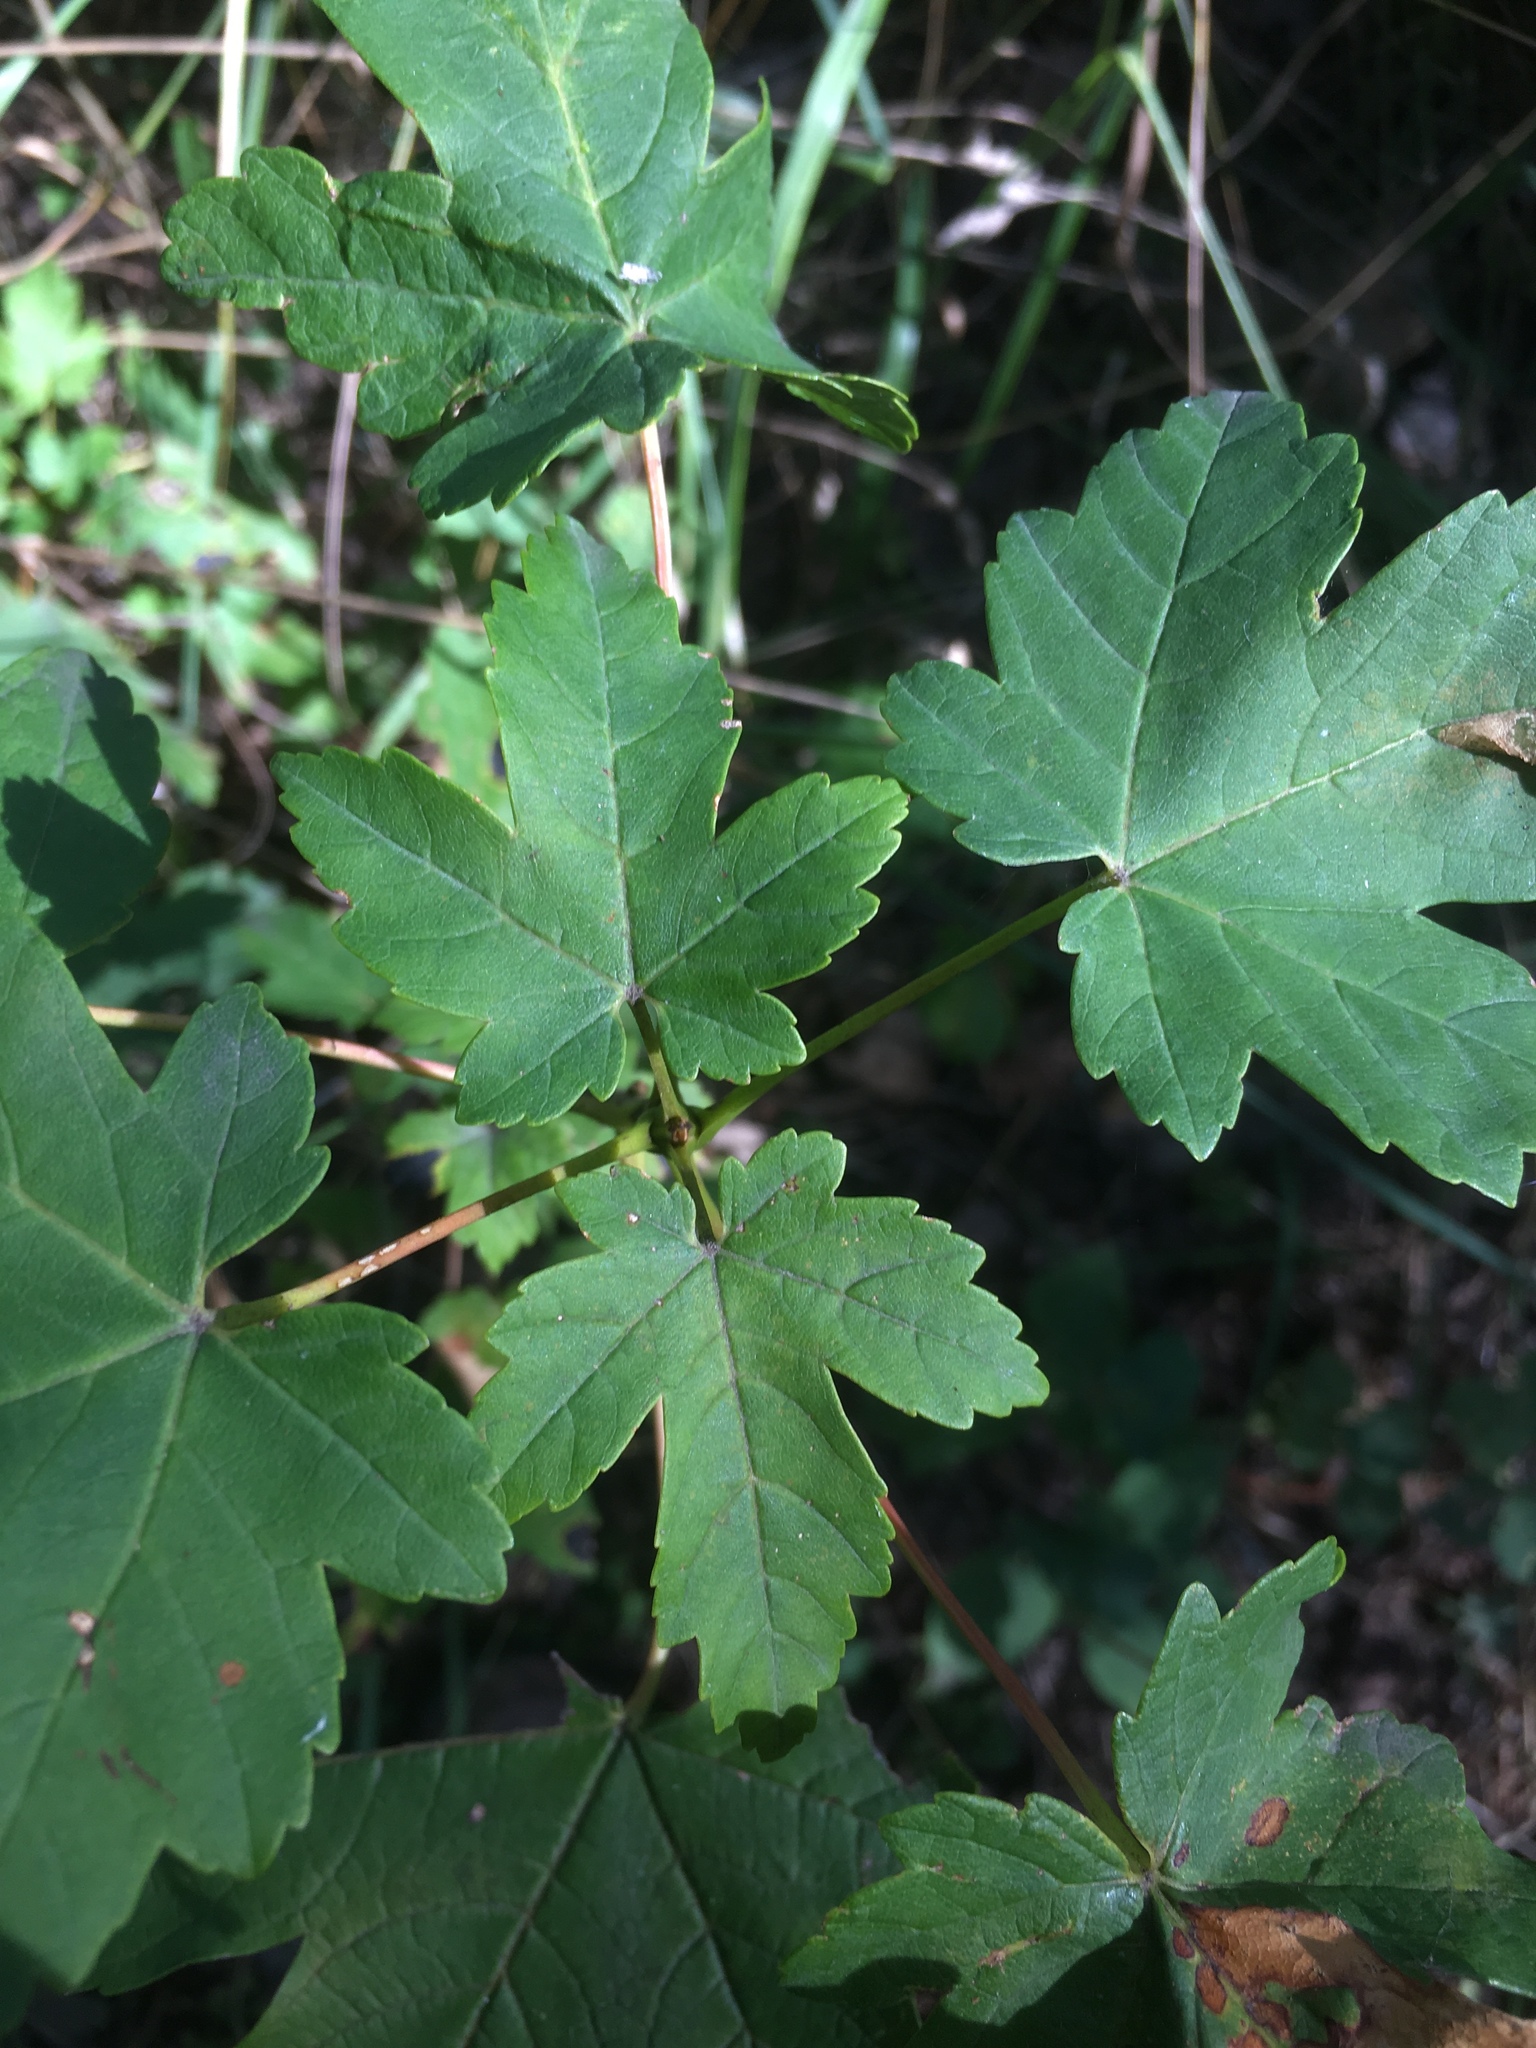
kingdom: Plantae
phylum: Tracheophyta
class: Magnoliopsida
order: Sapindales
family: Sapindaceae
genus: Acer
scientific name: Acer pseudoplatanus
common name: Sycamore
